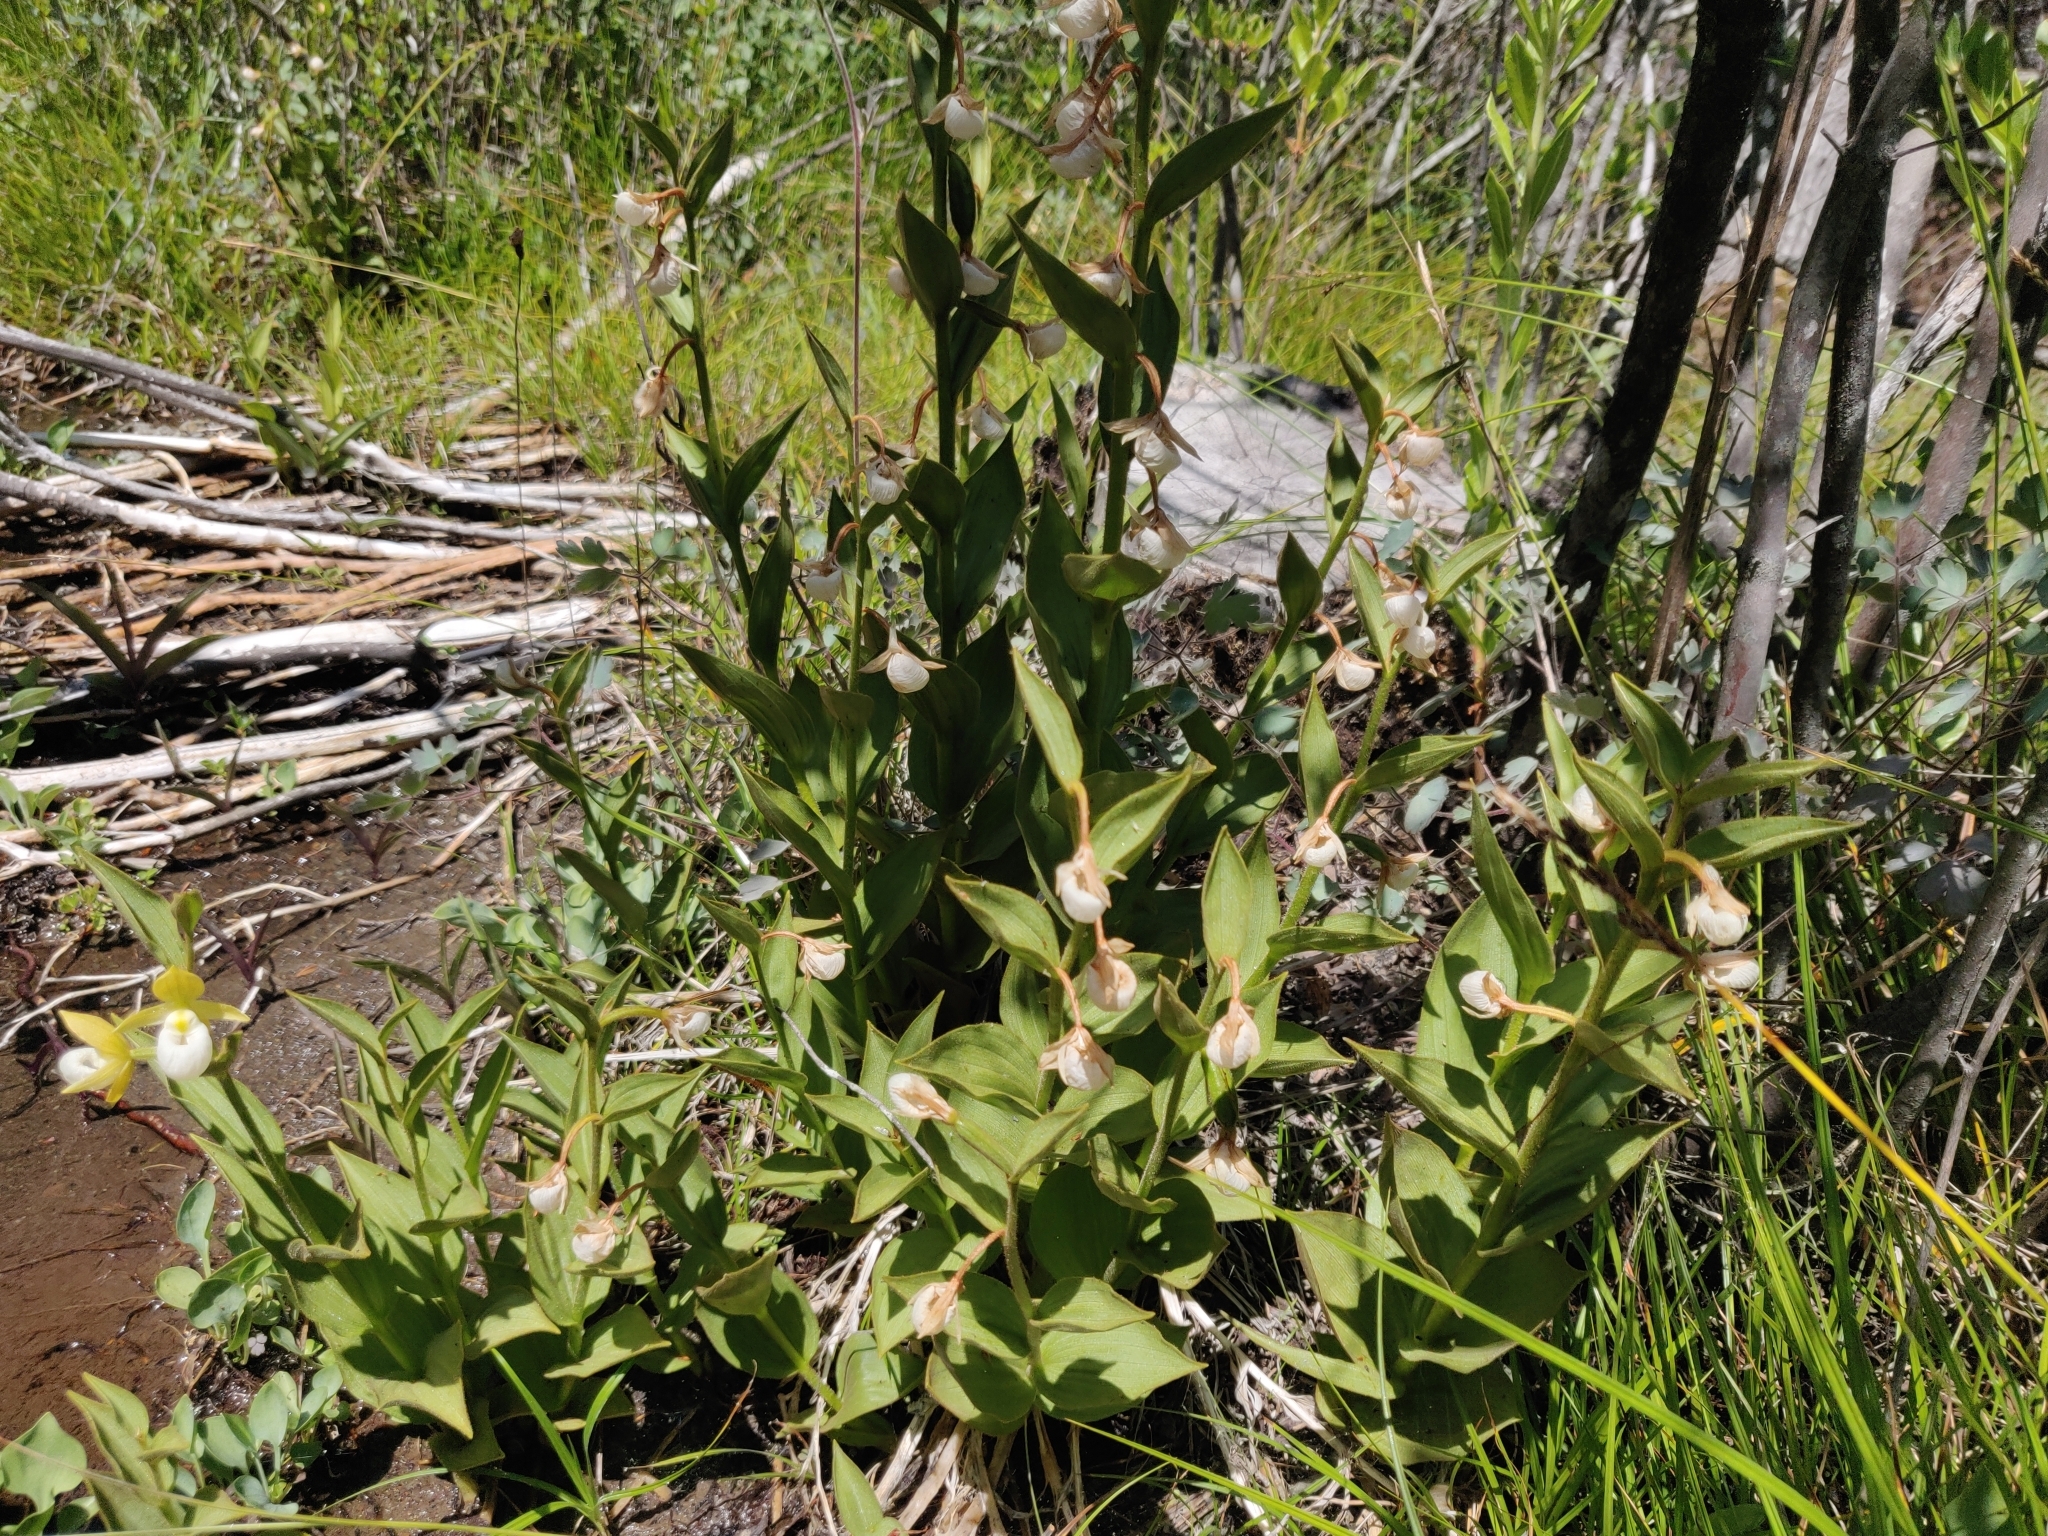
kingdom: Plantae
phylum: Tracheophyta
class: Liliopsida
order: Asparagales
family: Orchidaceae
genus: Cypripedium
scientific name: Cypripedium californicum
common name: California lady's slipper
